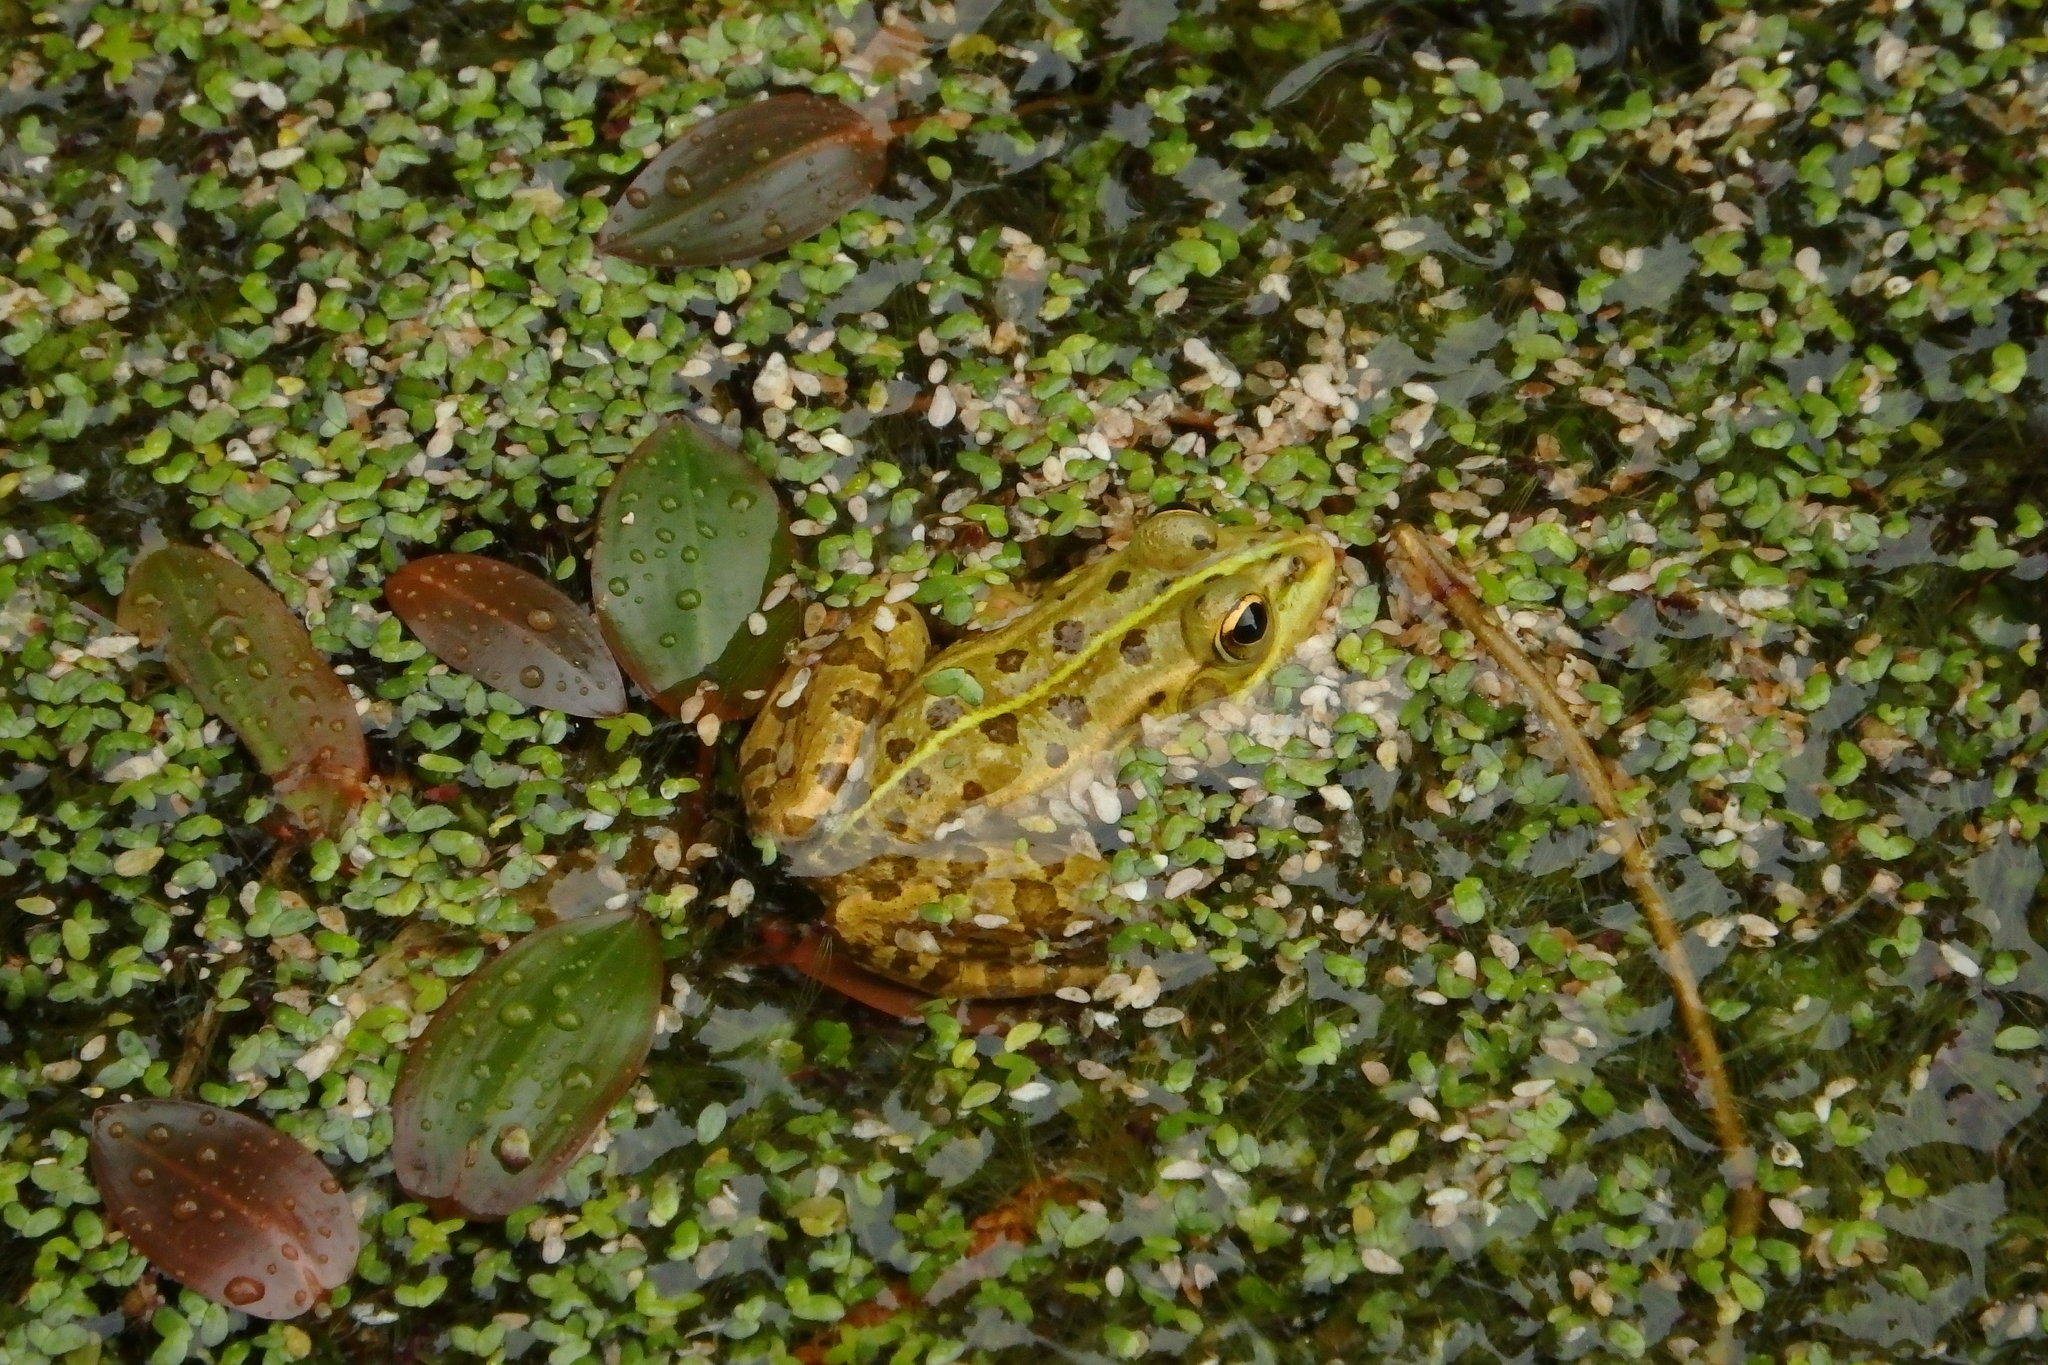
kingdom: Animalia
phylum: Chordata
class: Amphibia
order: Anura
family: Ranidae
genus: Pelophylax
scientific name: Pelophylax perezi
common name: Perez's frog
